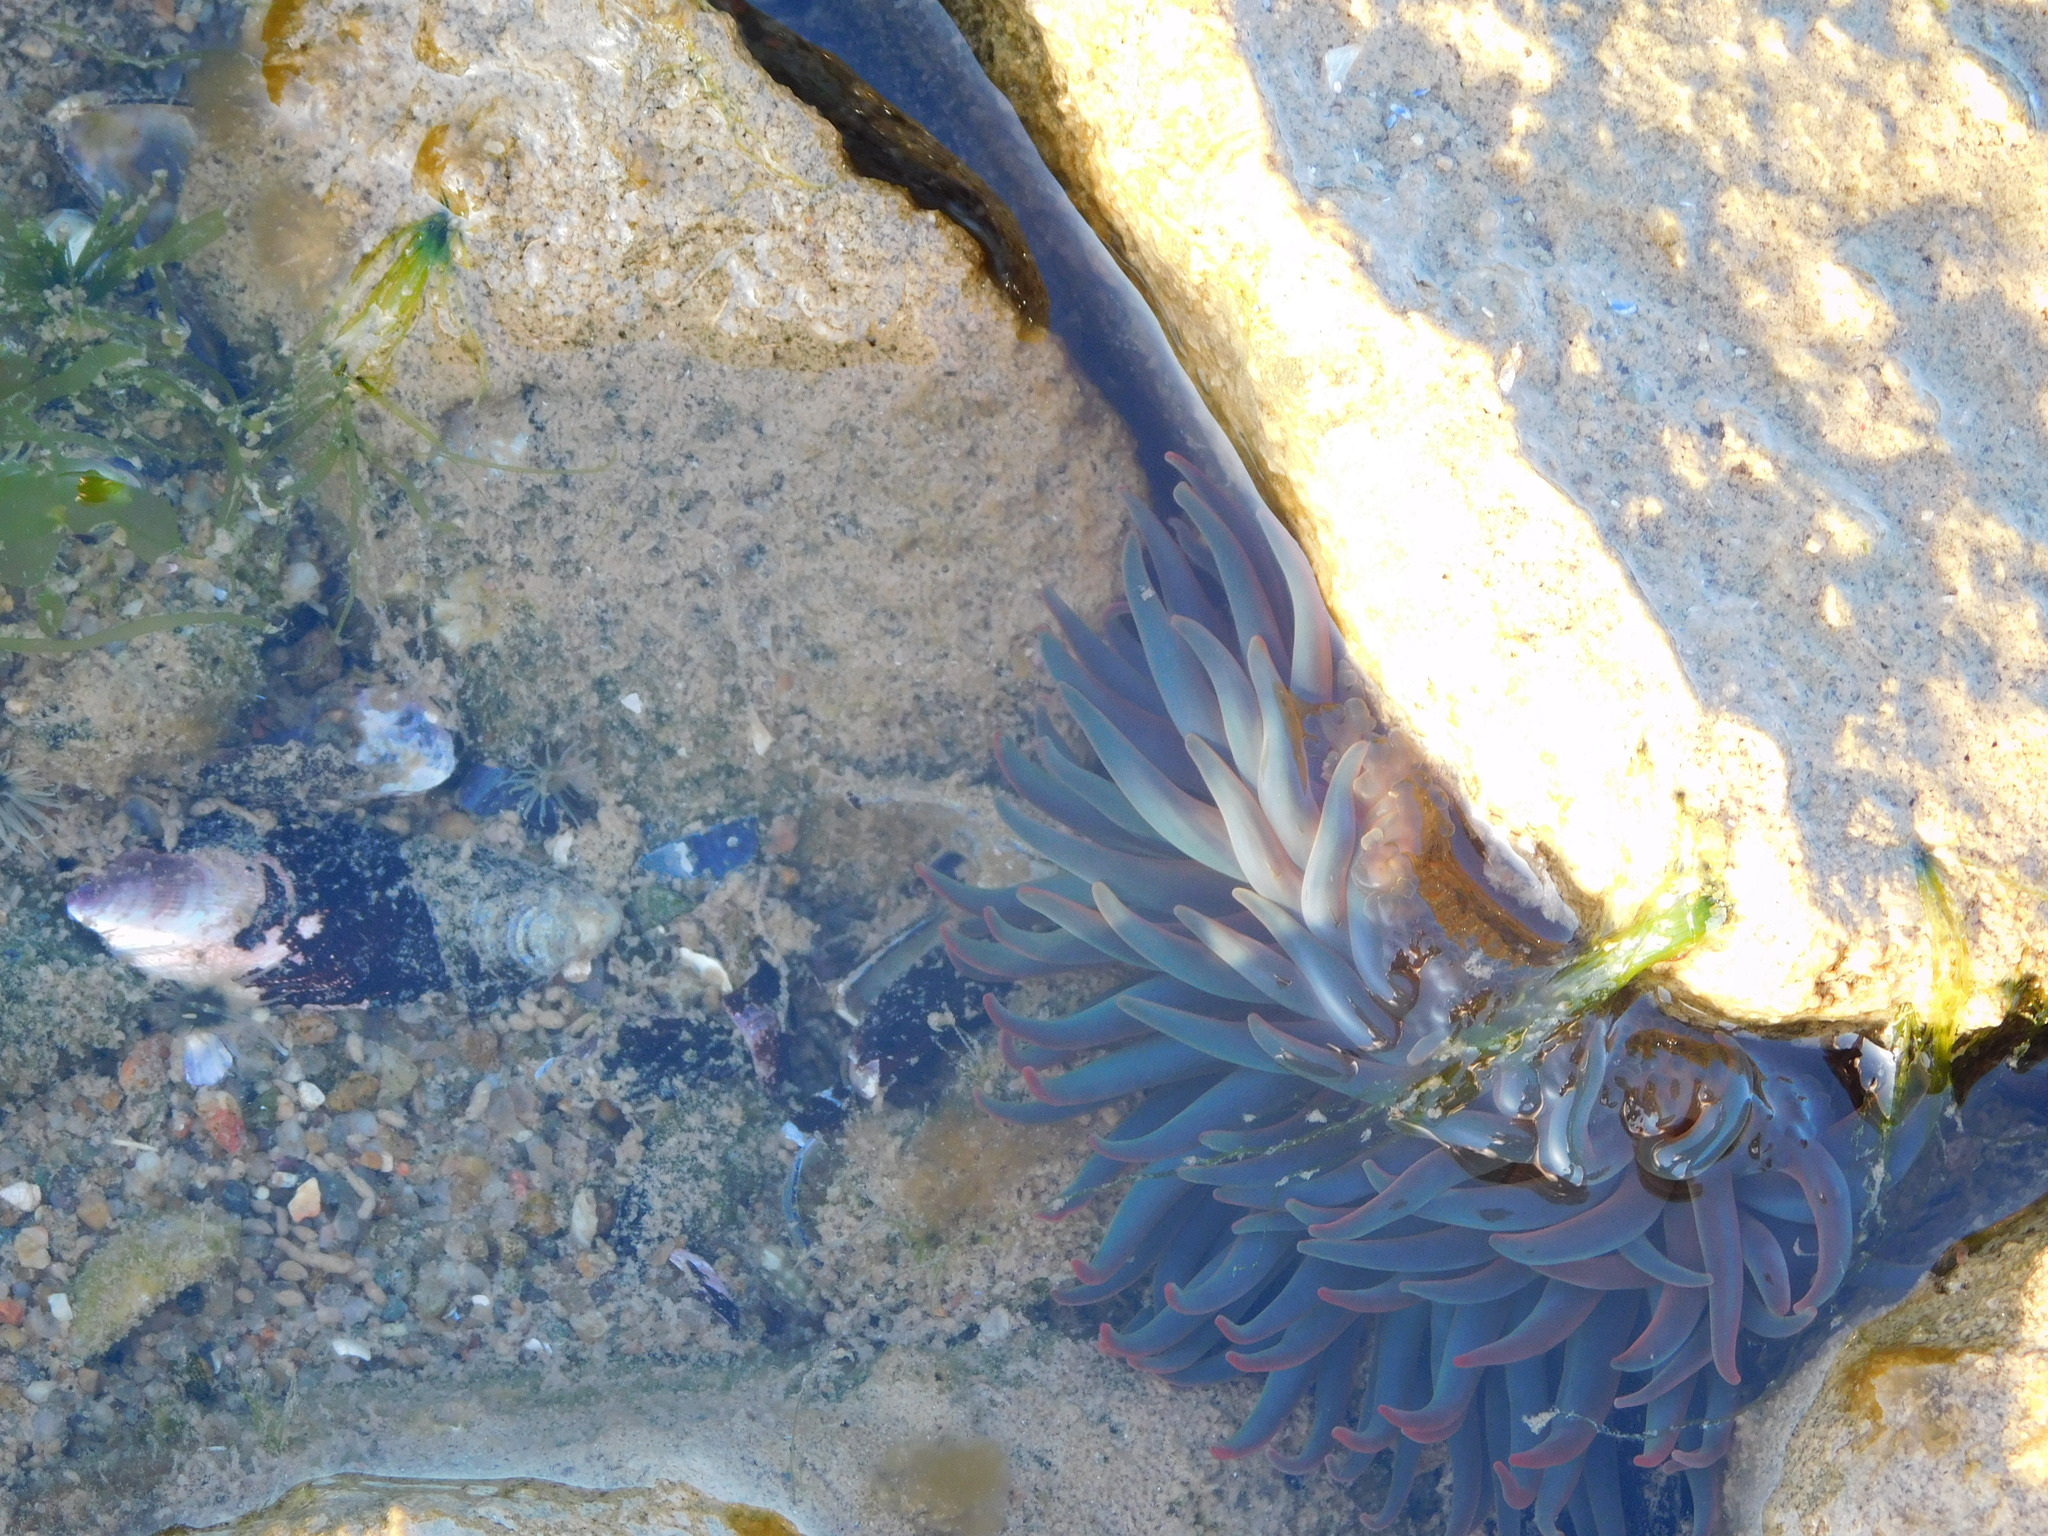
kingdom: Animalia
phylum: Cnidaria
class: Anthozoa
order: Actiniaria
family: Actiniidae
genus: Bunodosoma
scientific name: Bunodosoma cangicum
